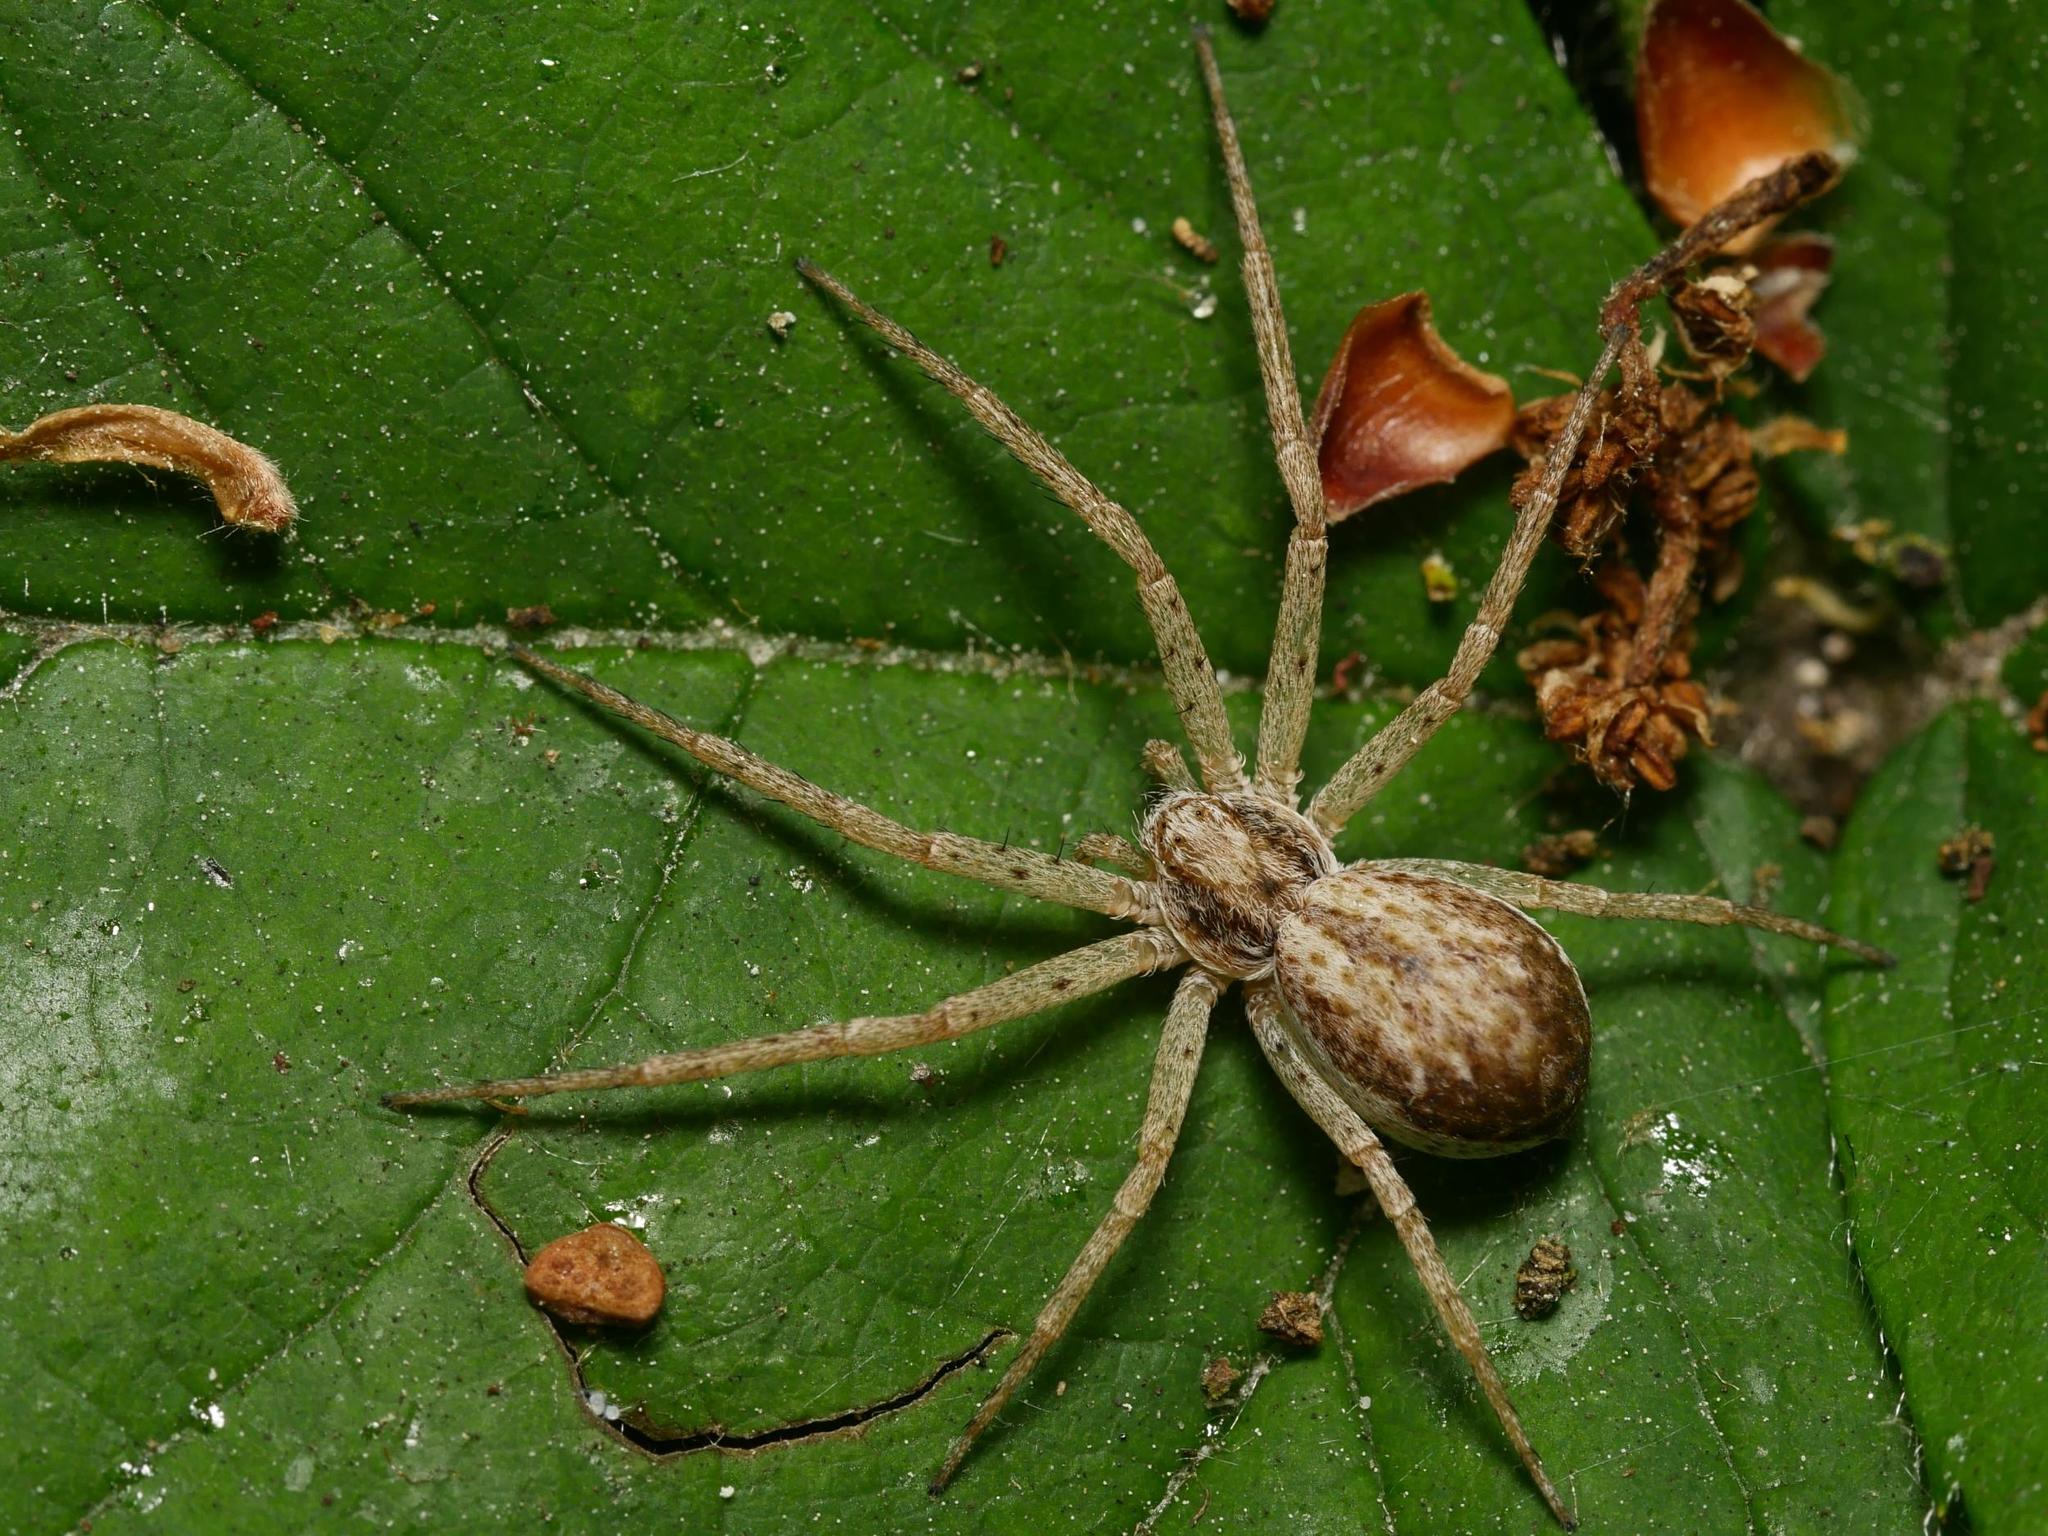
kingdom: Animalia
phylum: Arthropoda
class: Arachnida
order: Araneae
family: Philodromidae
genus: Philodromus
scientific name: Philodromus dispar
